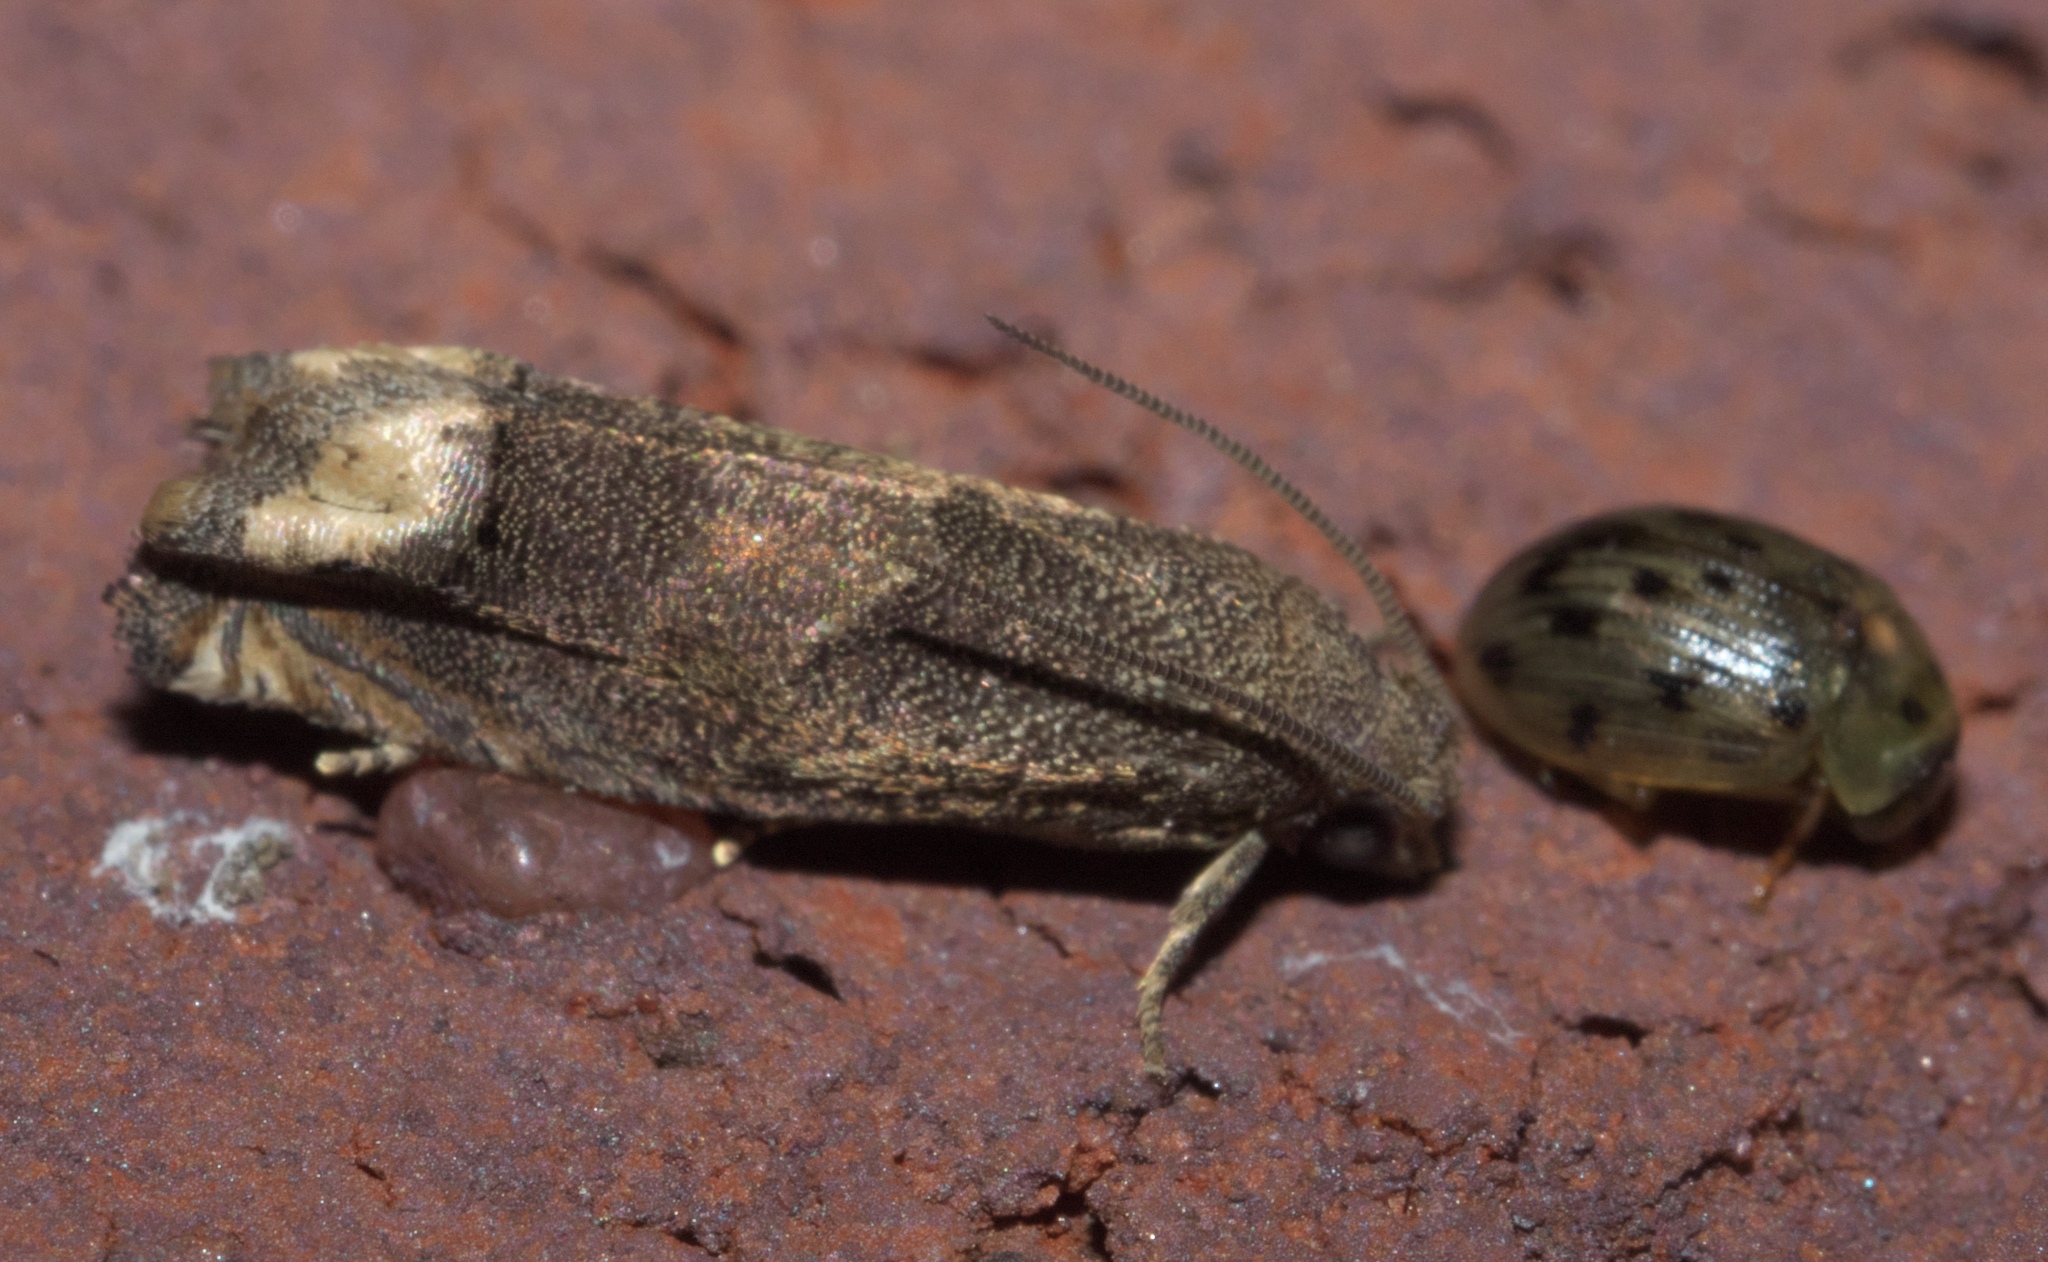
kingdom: Animalia
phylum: Arthropoda
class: Insecta
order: Lepidoptera
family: Tortricidae
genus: Epiblema
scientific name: Epiblema strenuana
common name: Ragweed borer moth
